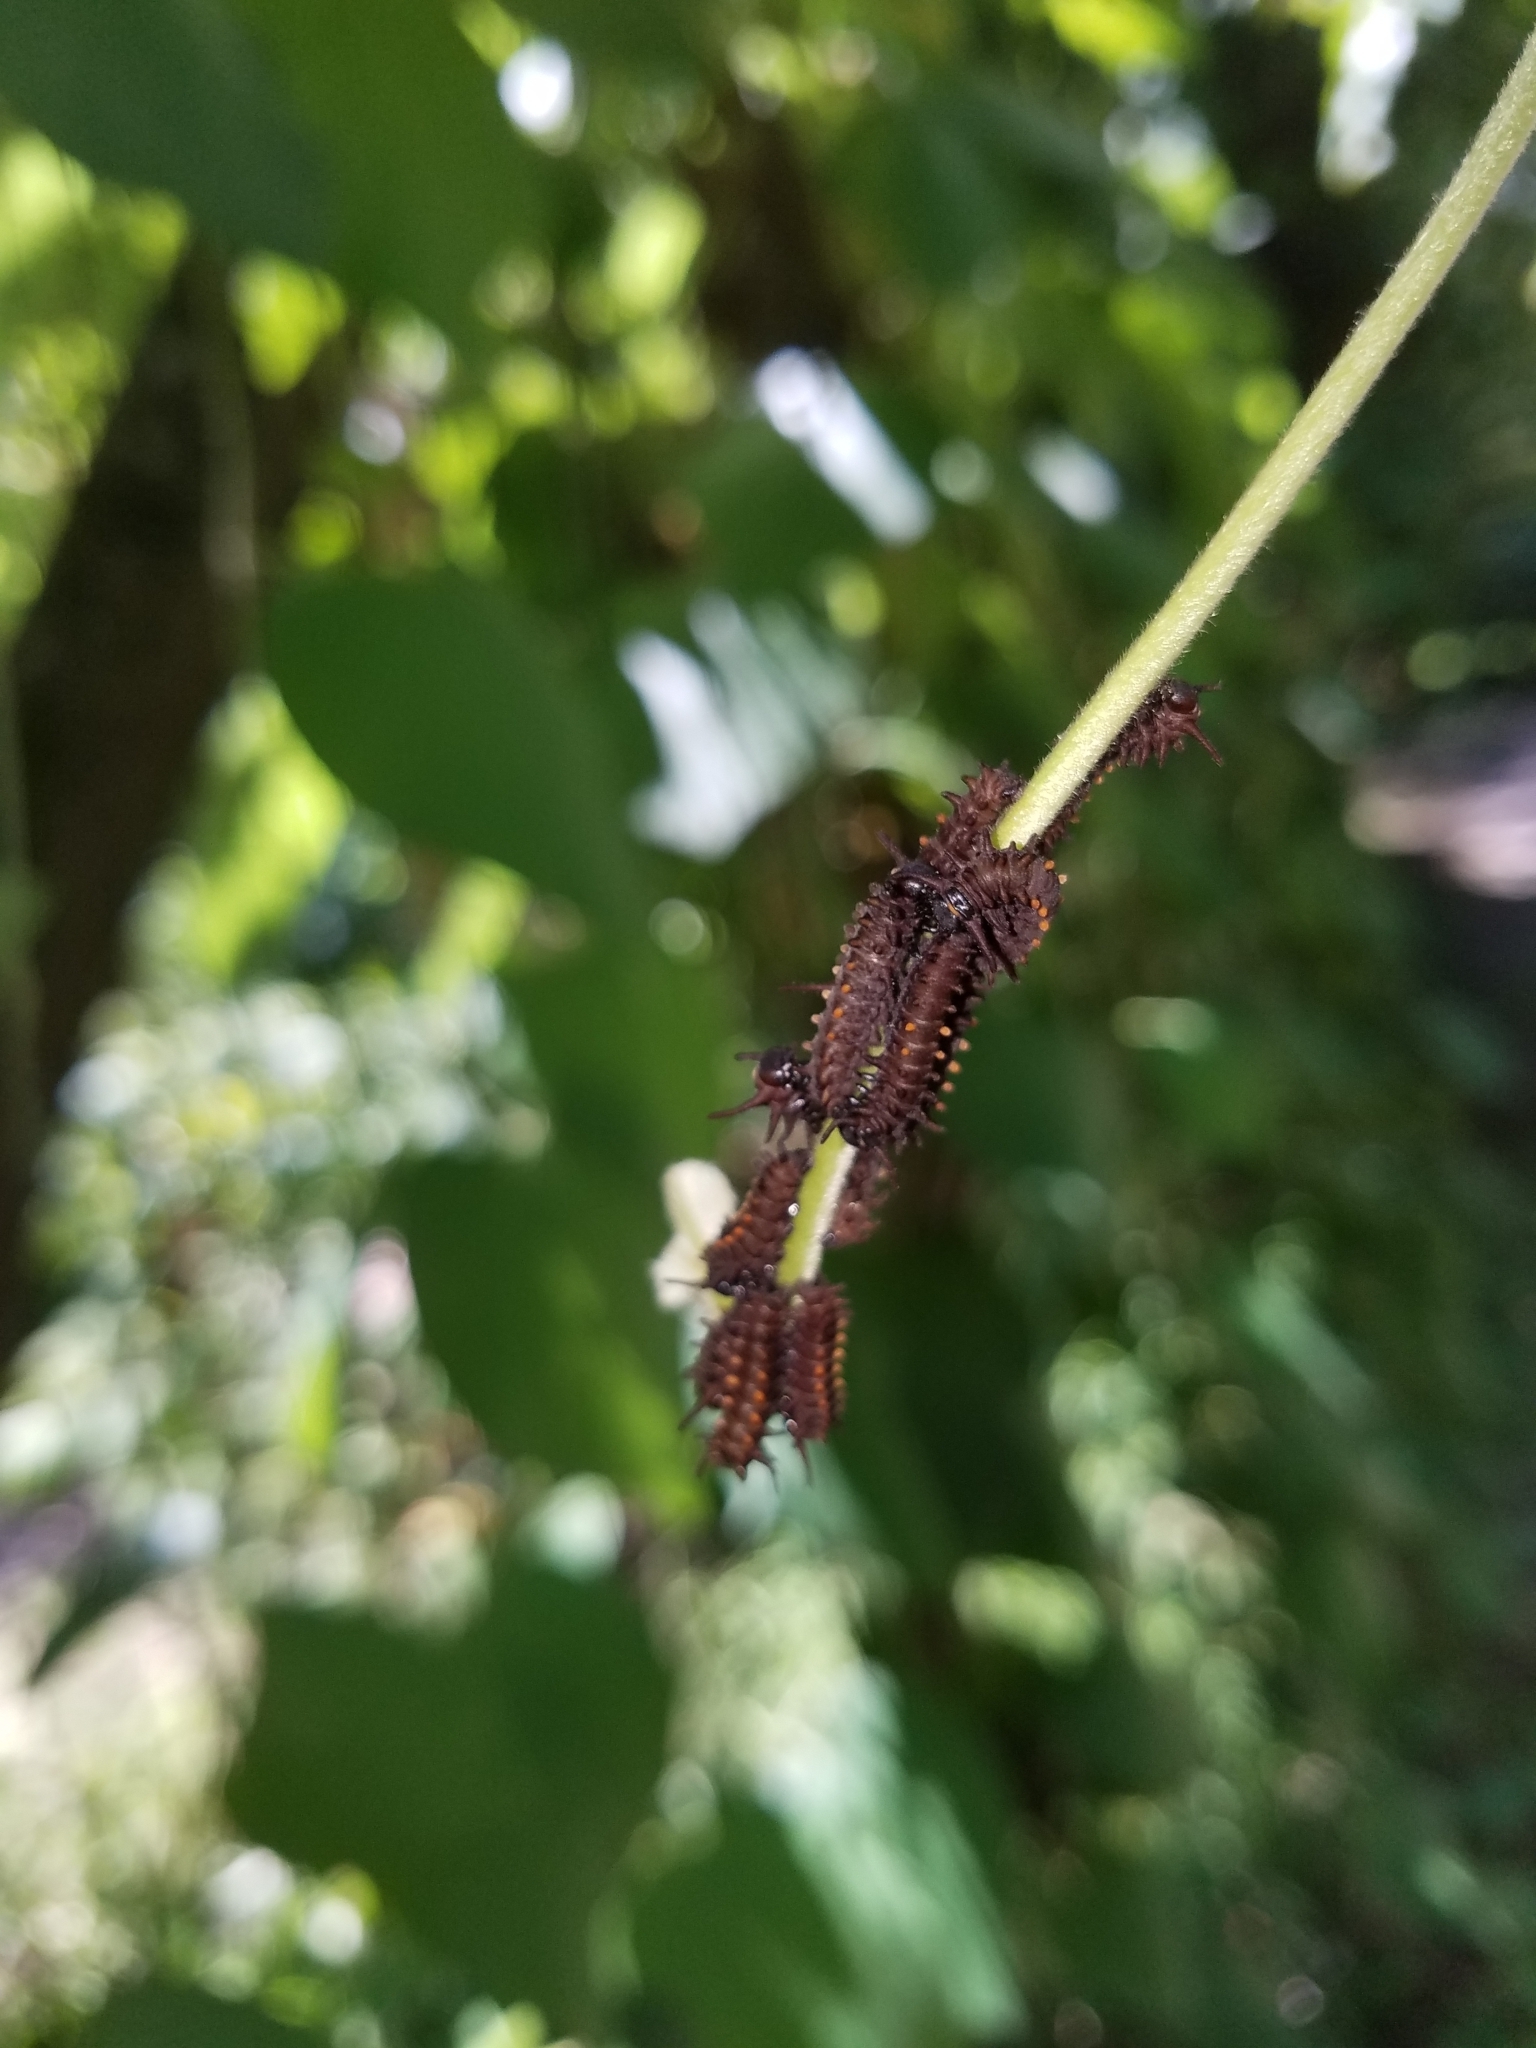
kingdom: Animalia
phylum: Arthropoda
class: Insecta
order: Lepidoptera
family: Papilionidae
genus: Battus
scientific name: Battus philenor
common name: Pipevine swallowtail
